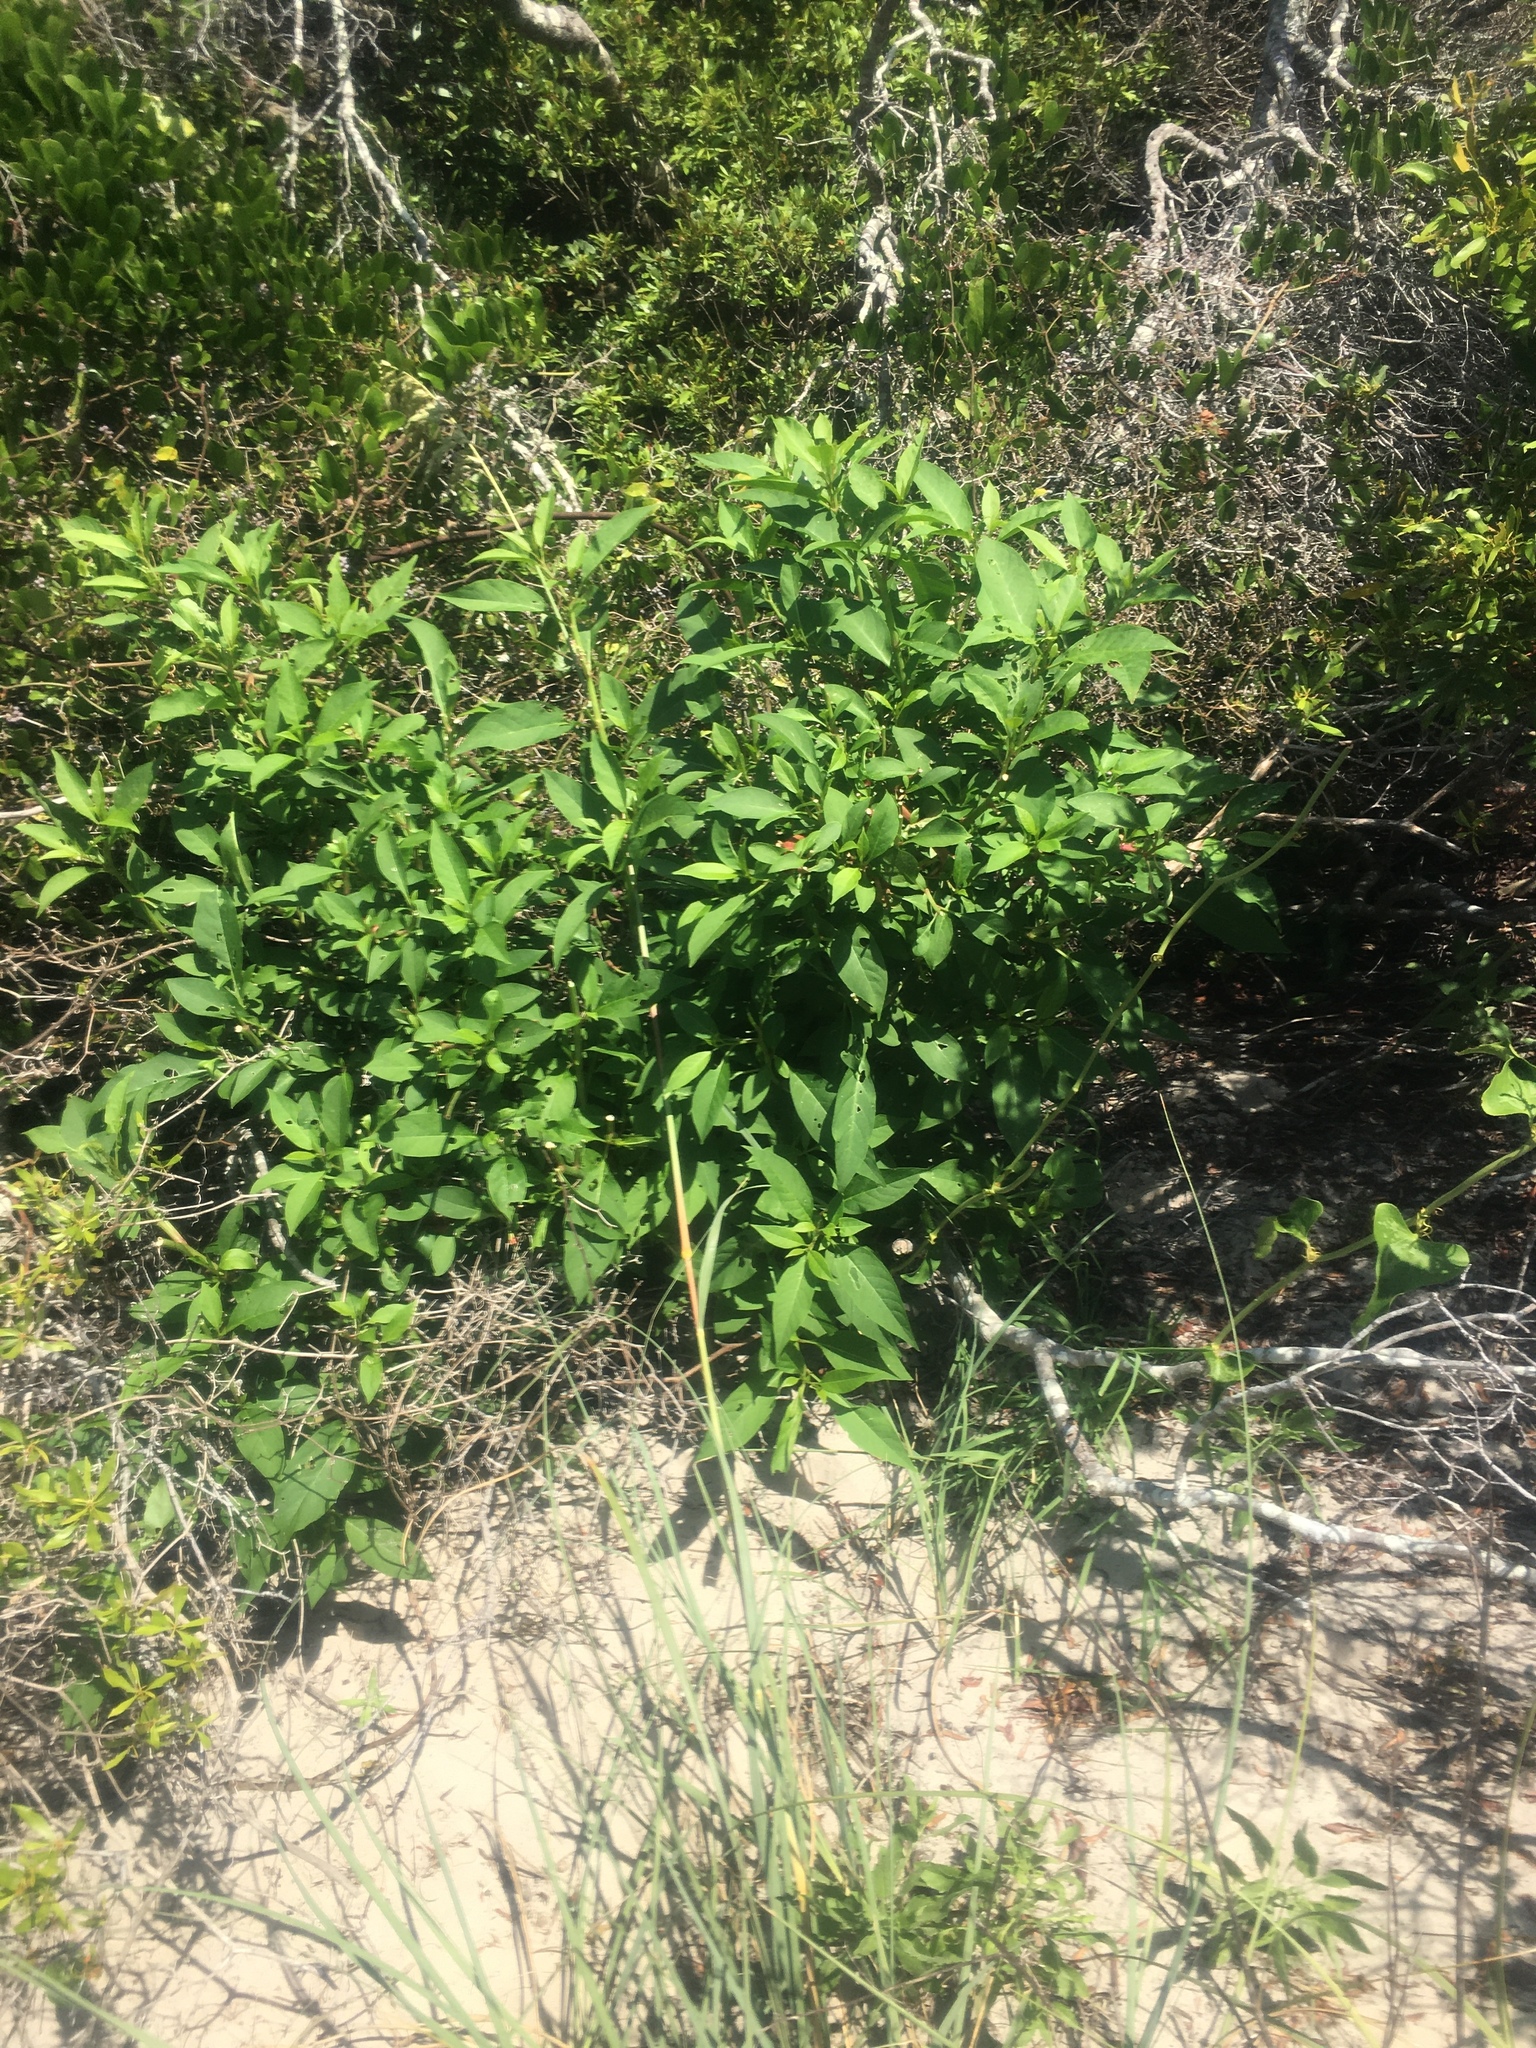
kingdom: Plantae
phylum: Tracheophyta
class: Magnoliopsida
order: Caryophyllales
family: Phytolaccaceae
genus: Phytolacca
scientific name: Phytolacca americana
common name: American pokeweed
